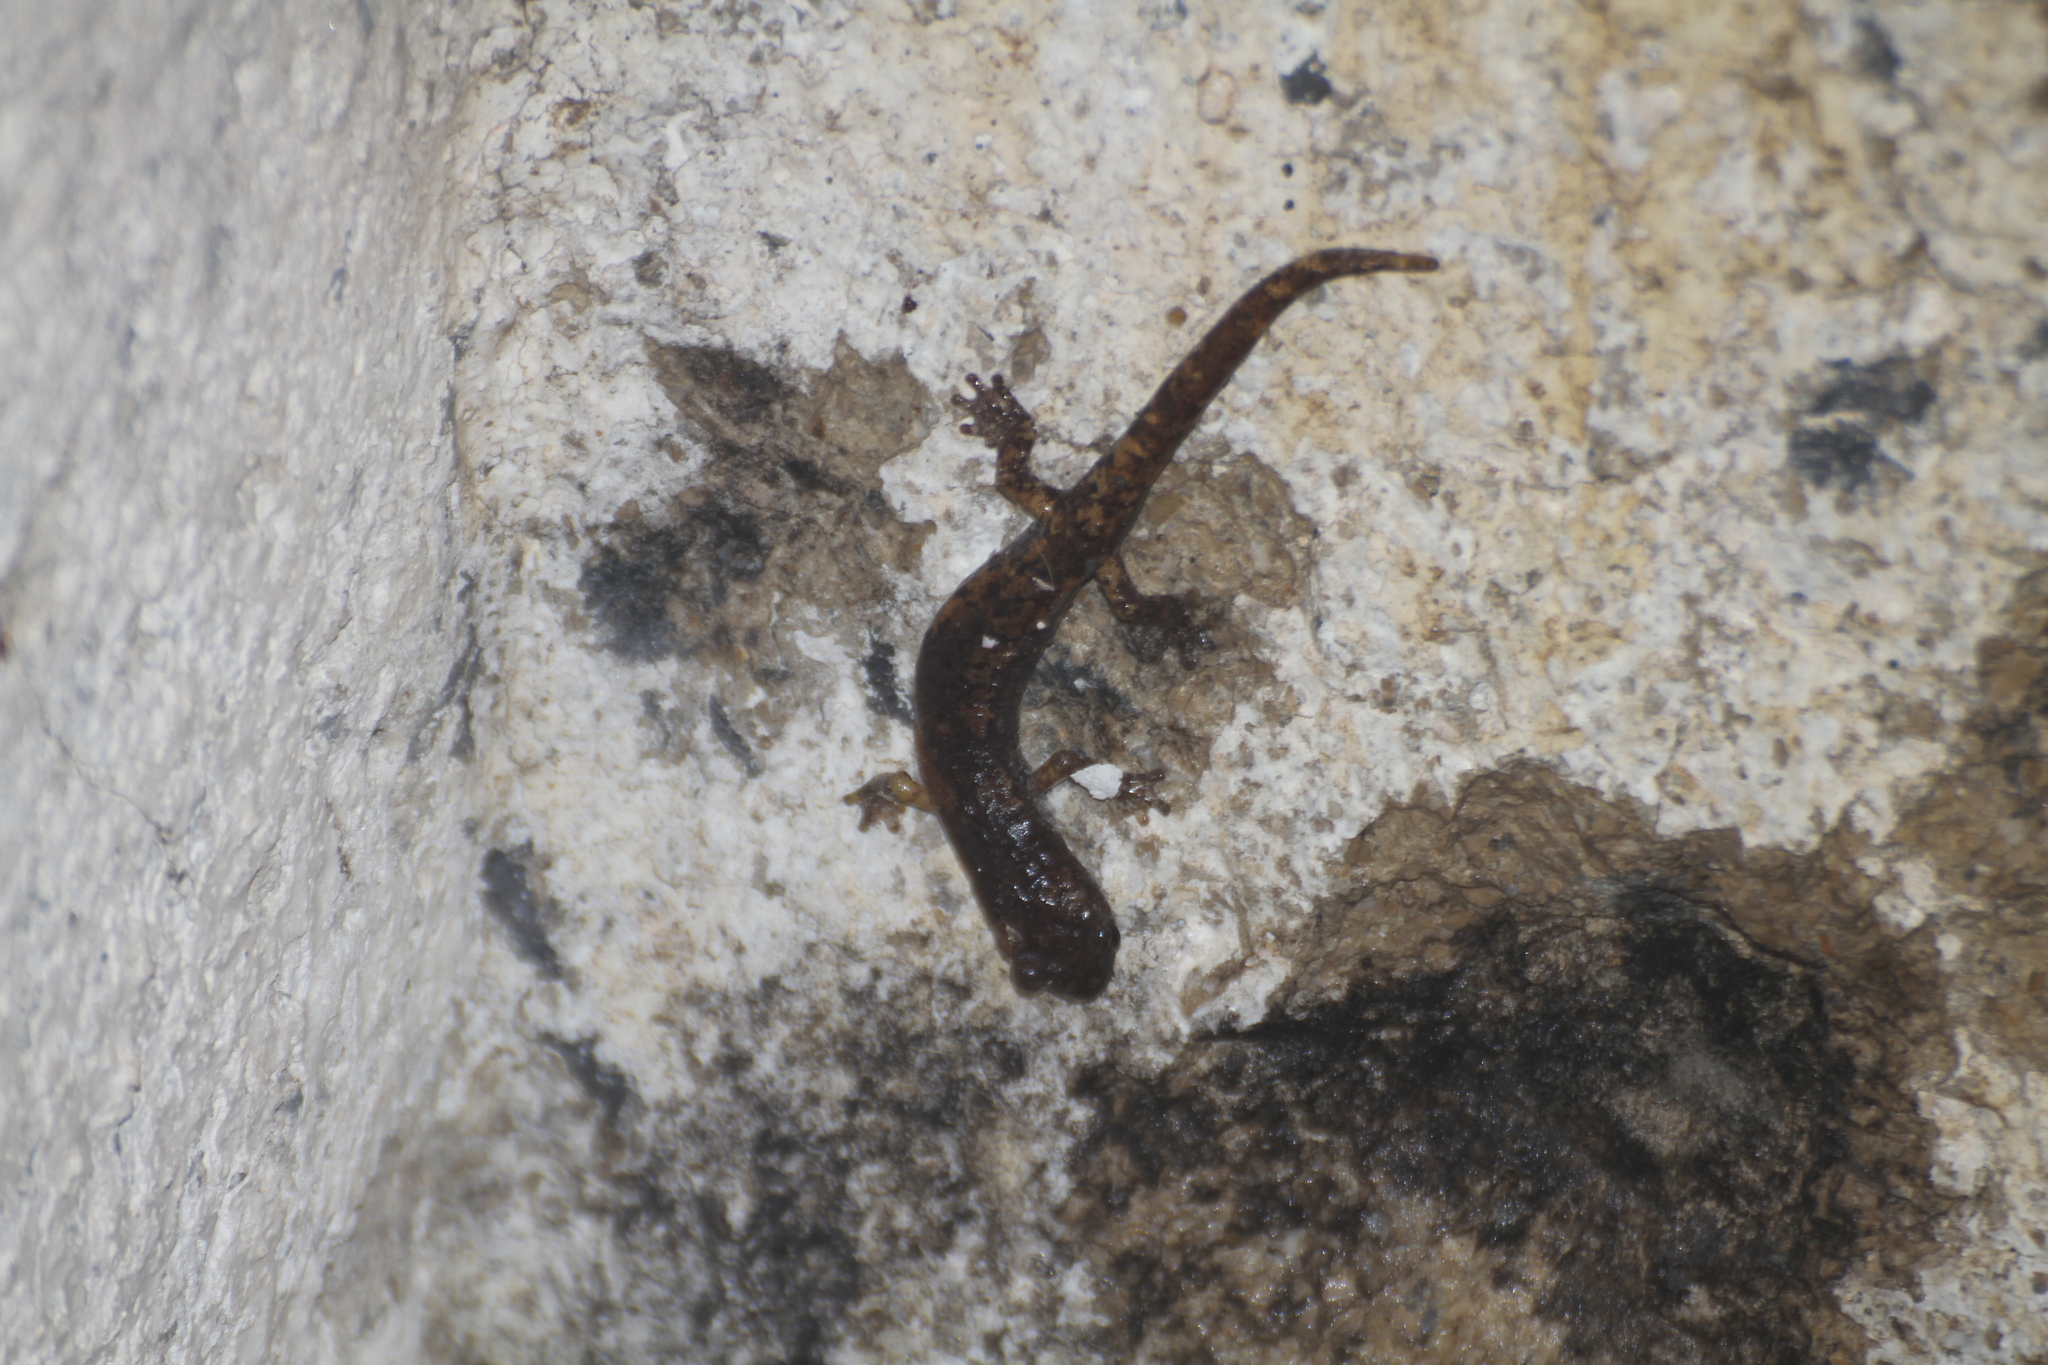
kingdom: Animalia
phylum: Chordata
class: Amphibia
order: Caudata
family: Plethodontidae
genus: Speleomantes
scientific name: Speleomantes strinatii
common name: French cave salamander
